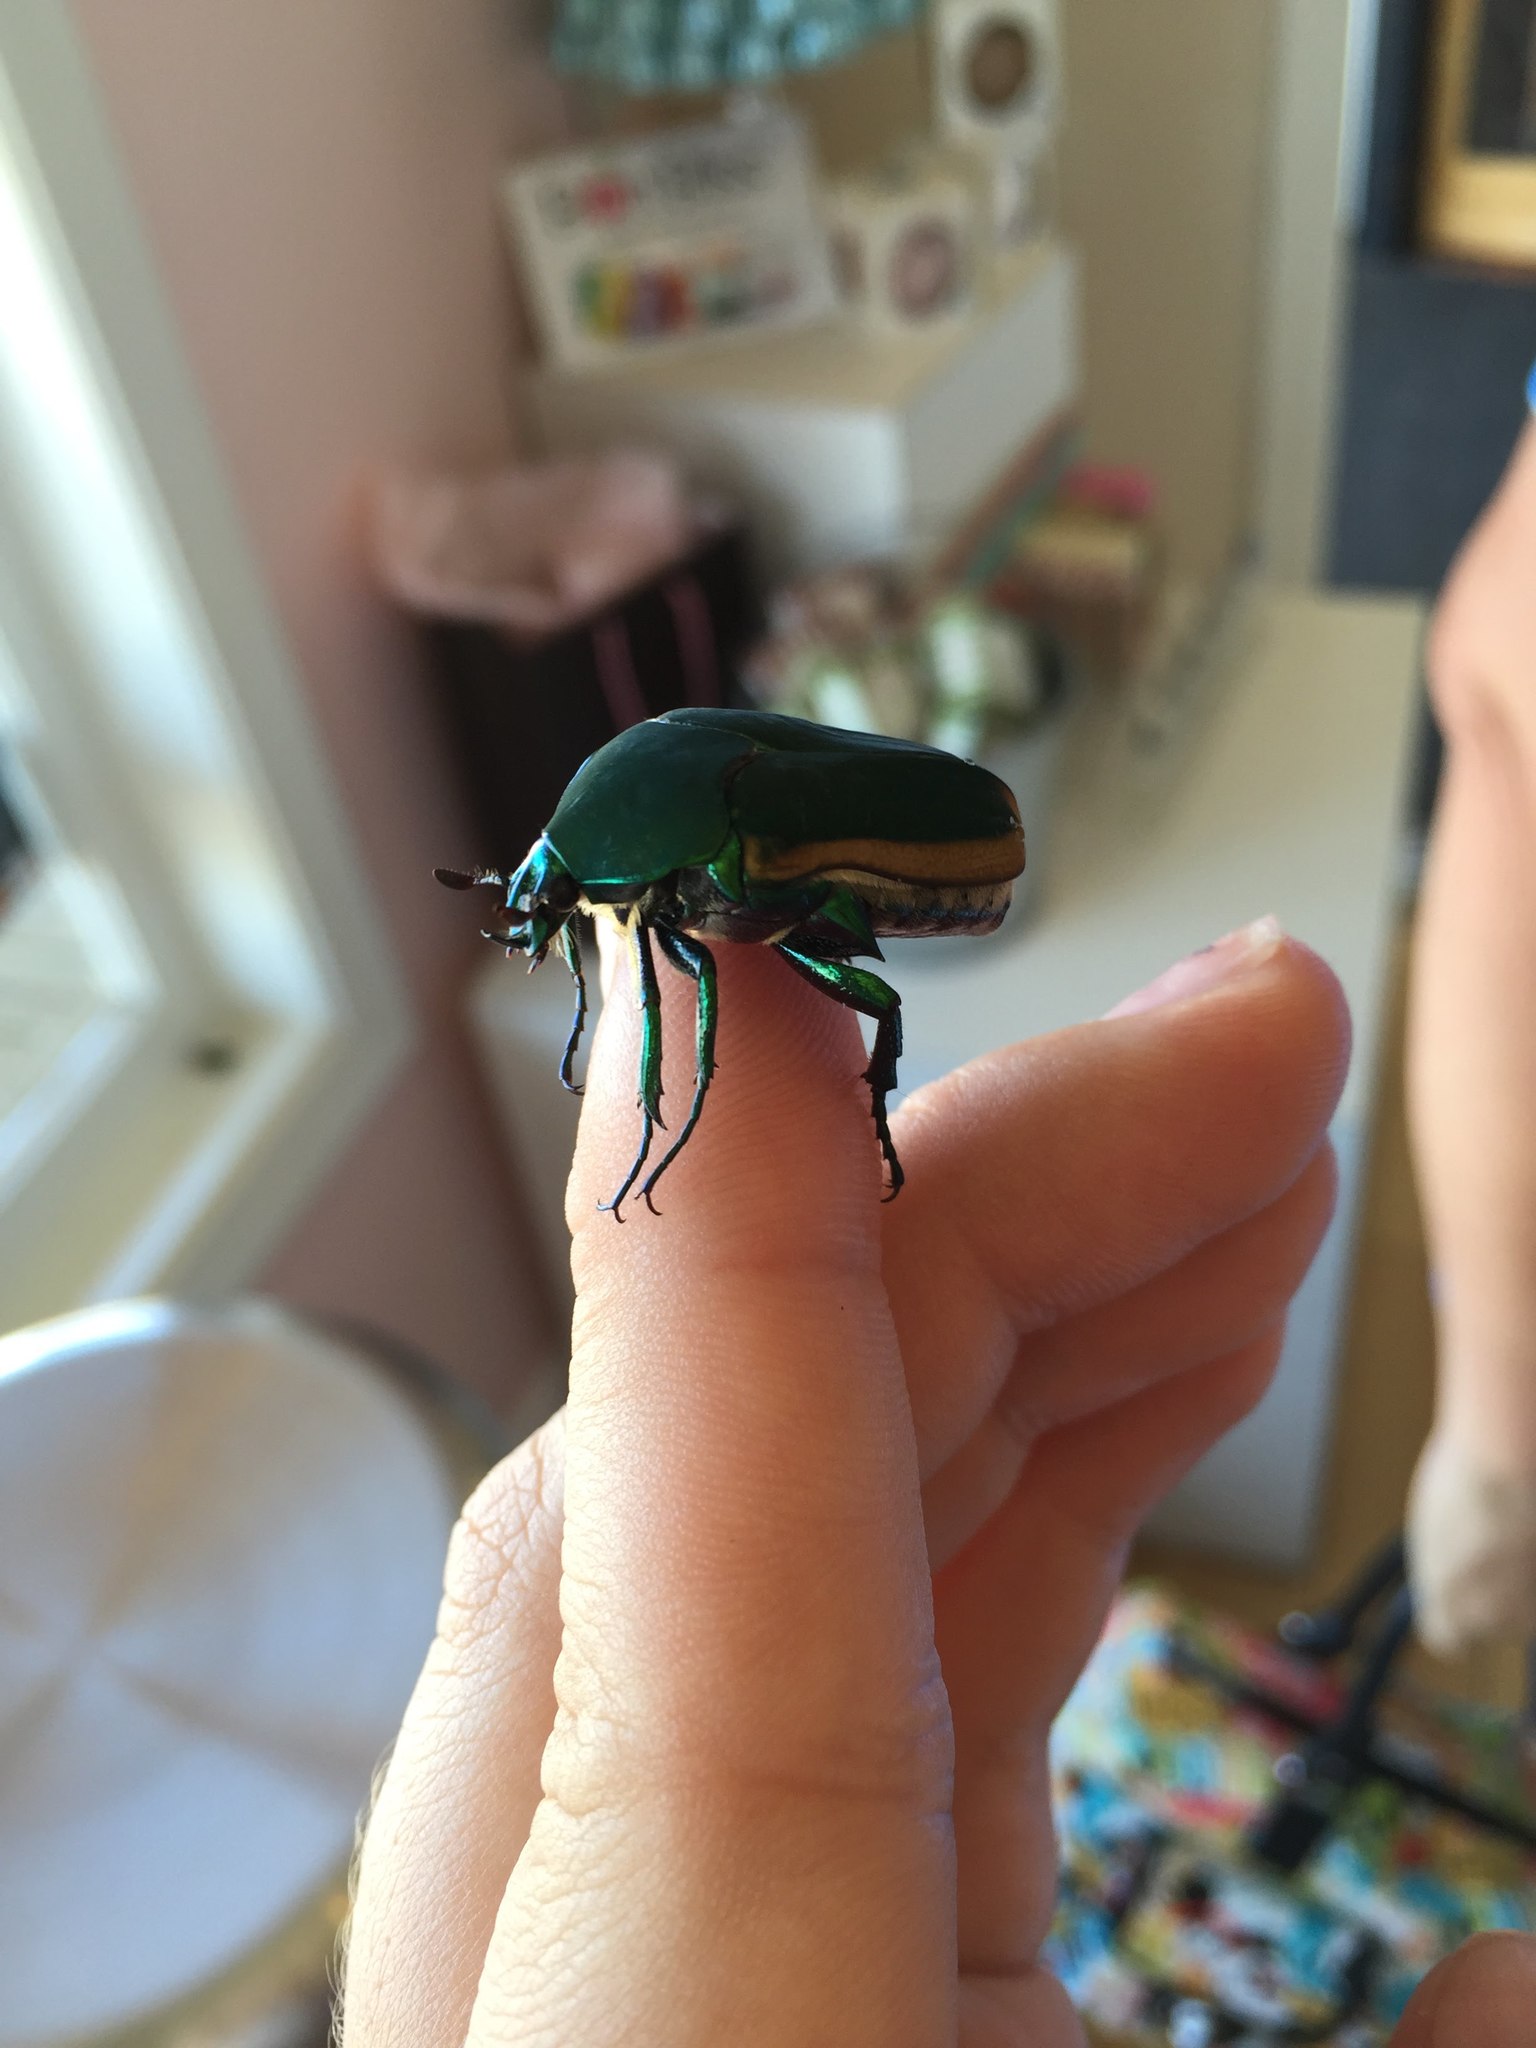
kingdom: Animalia
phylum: Arthropoda
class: Insecta
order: Coleoptera
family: Scarabaeidae
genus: Cotinis
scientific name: Cotinis mutabilis
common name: Figeater beetle
